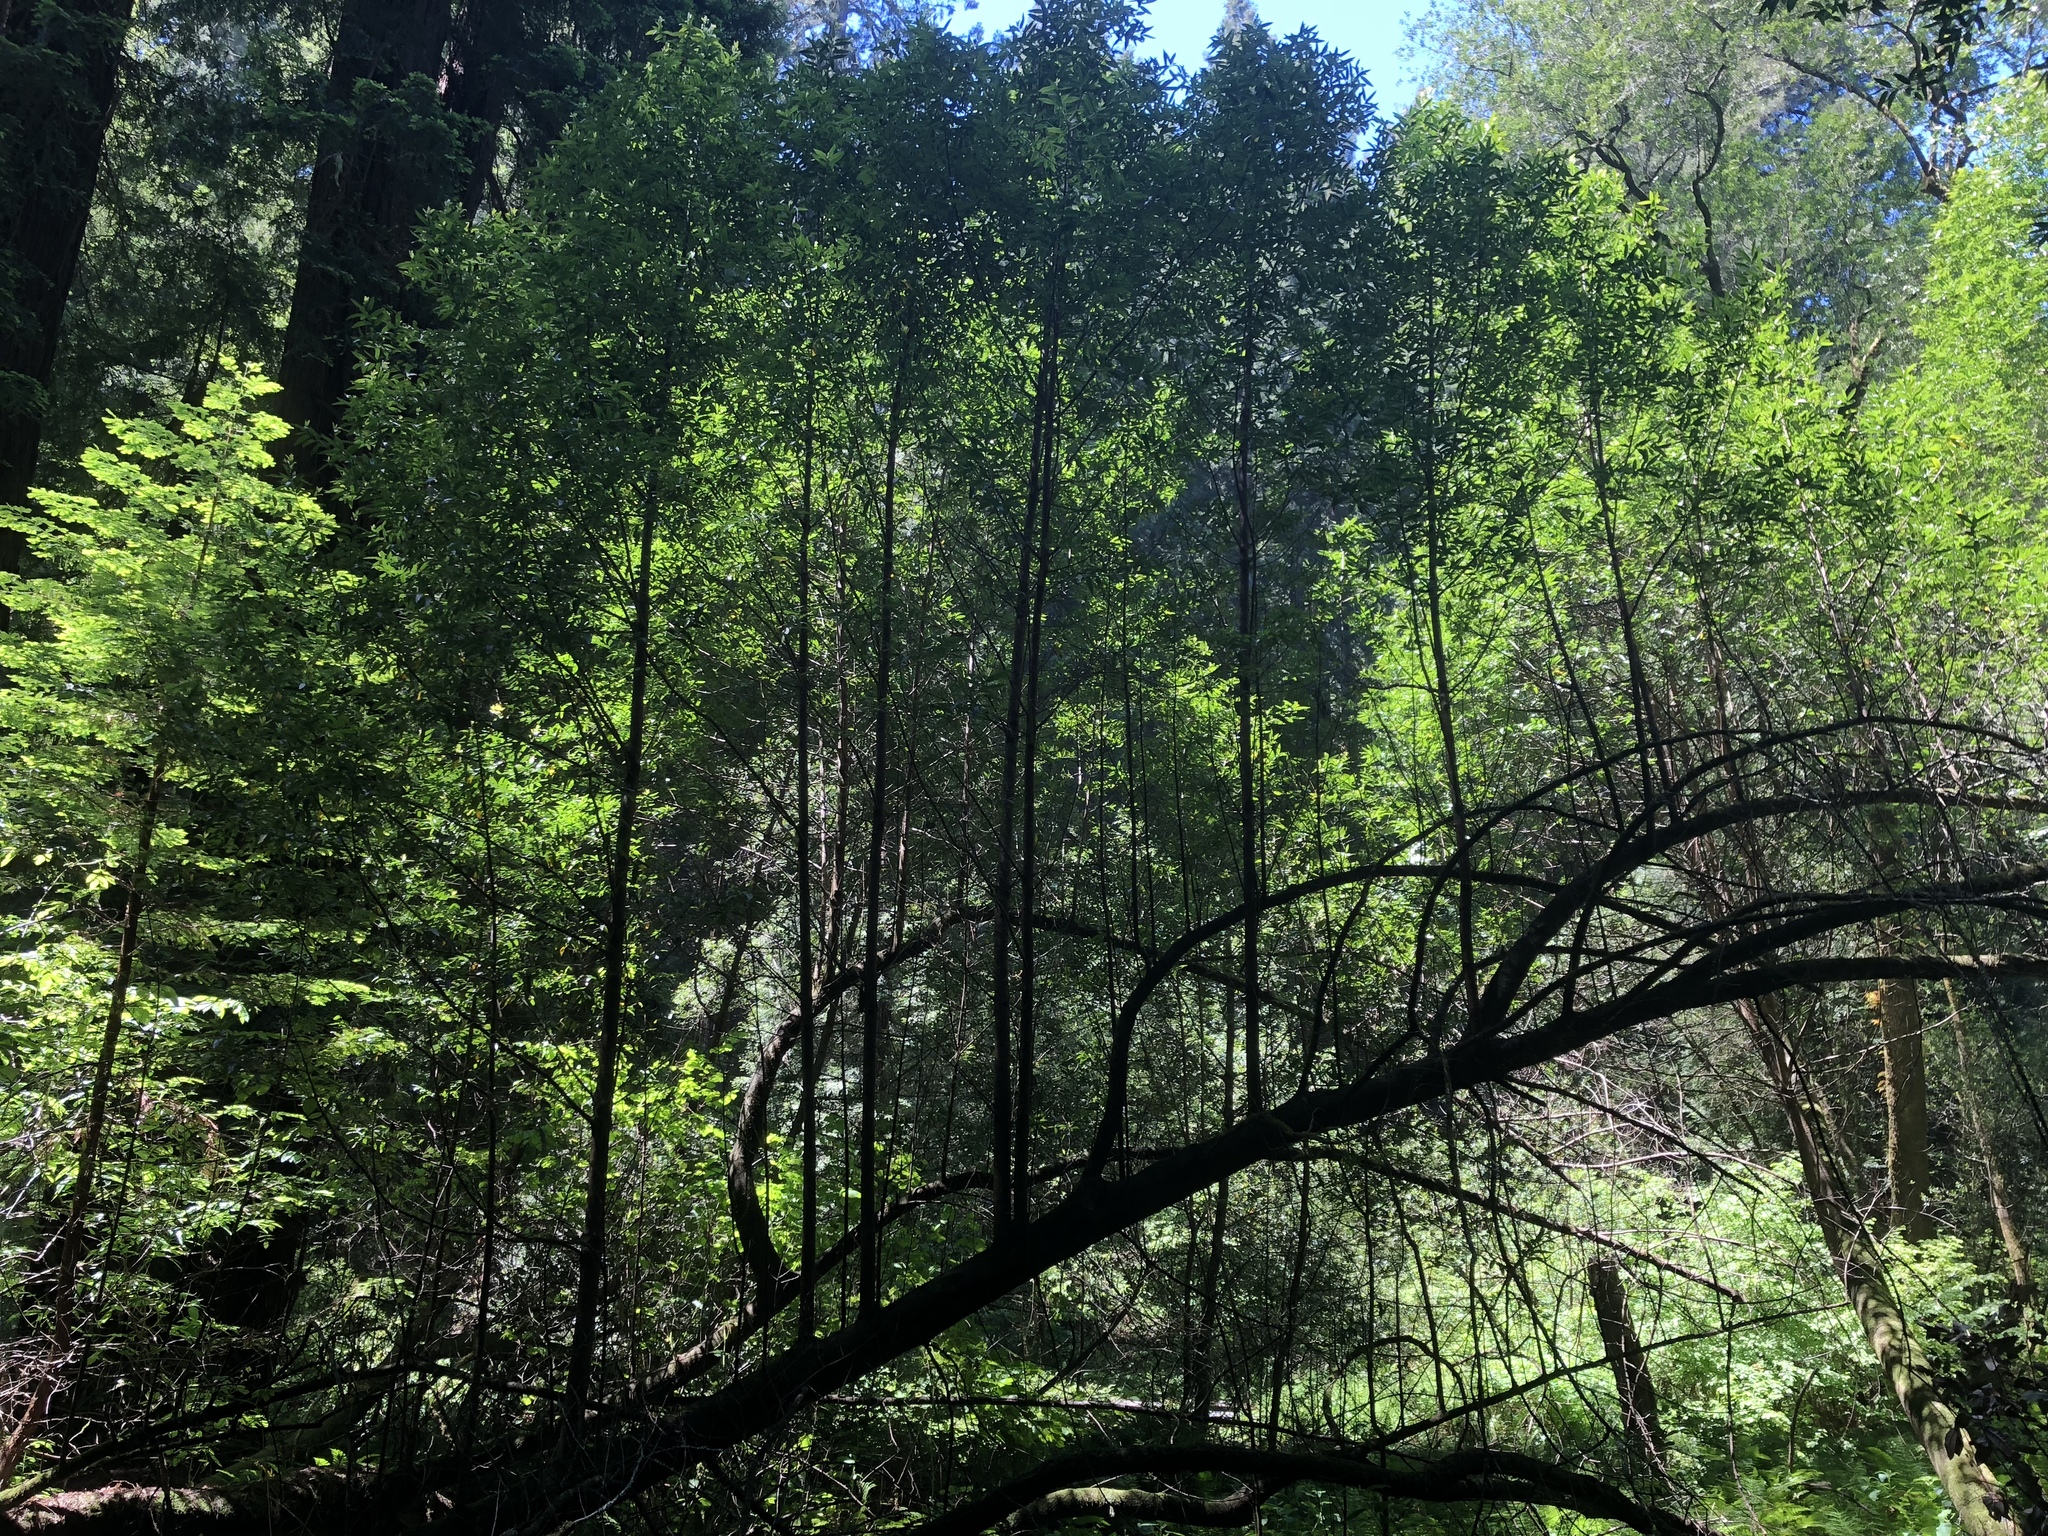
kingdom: Plantae
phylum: Tracheophyta
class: Magnoliopsida
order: Laurales
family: Lauraceae
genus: Umbellularia
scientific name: Umbellularia californica
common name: California bay
